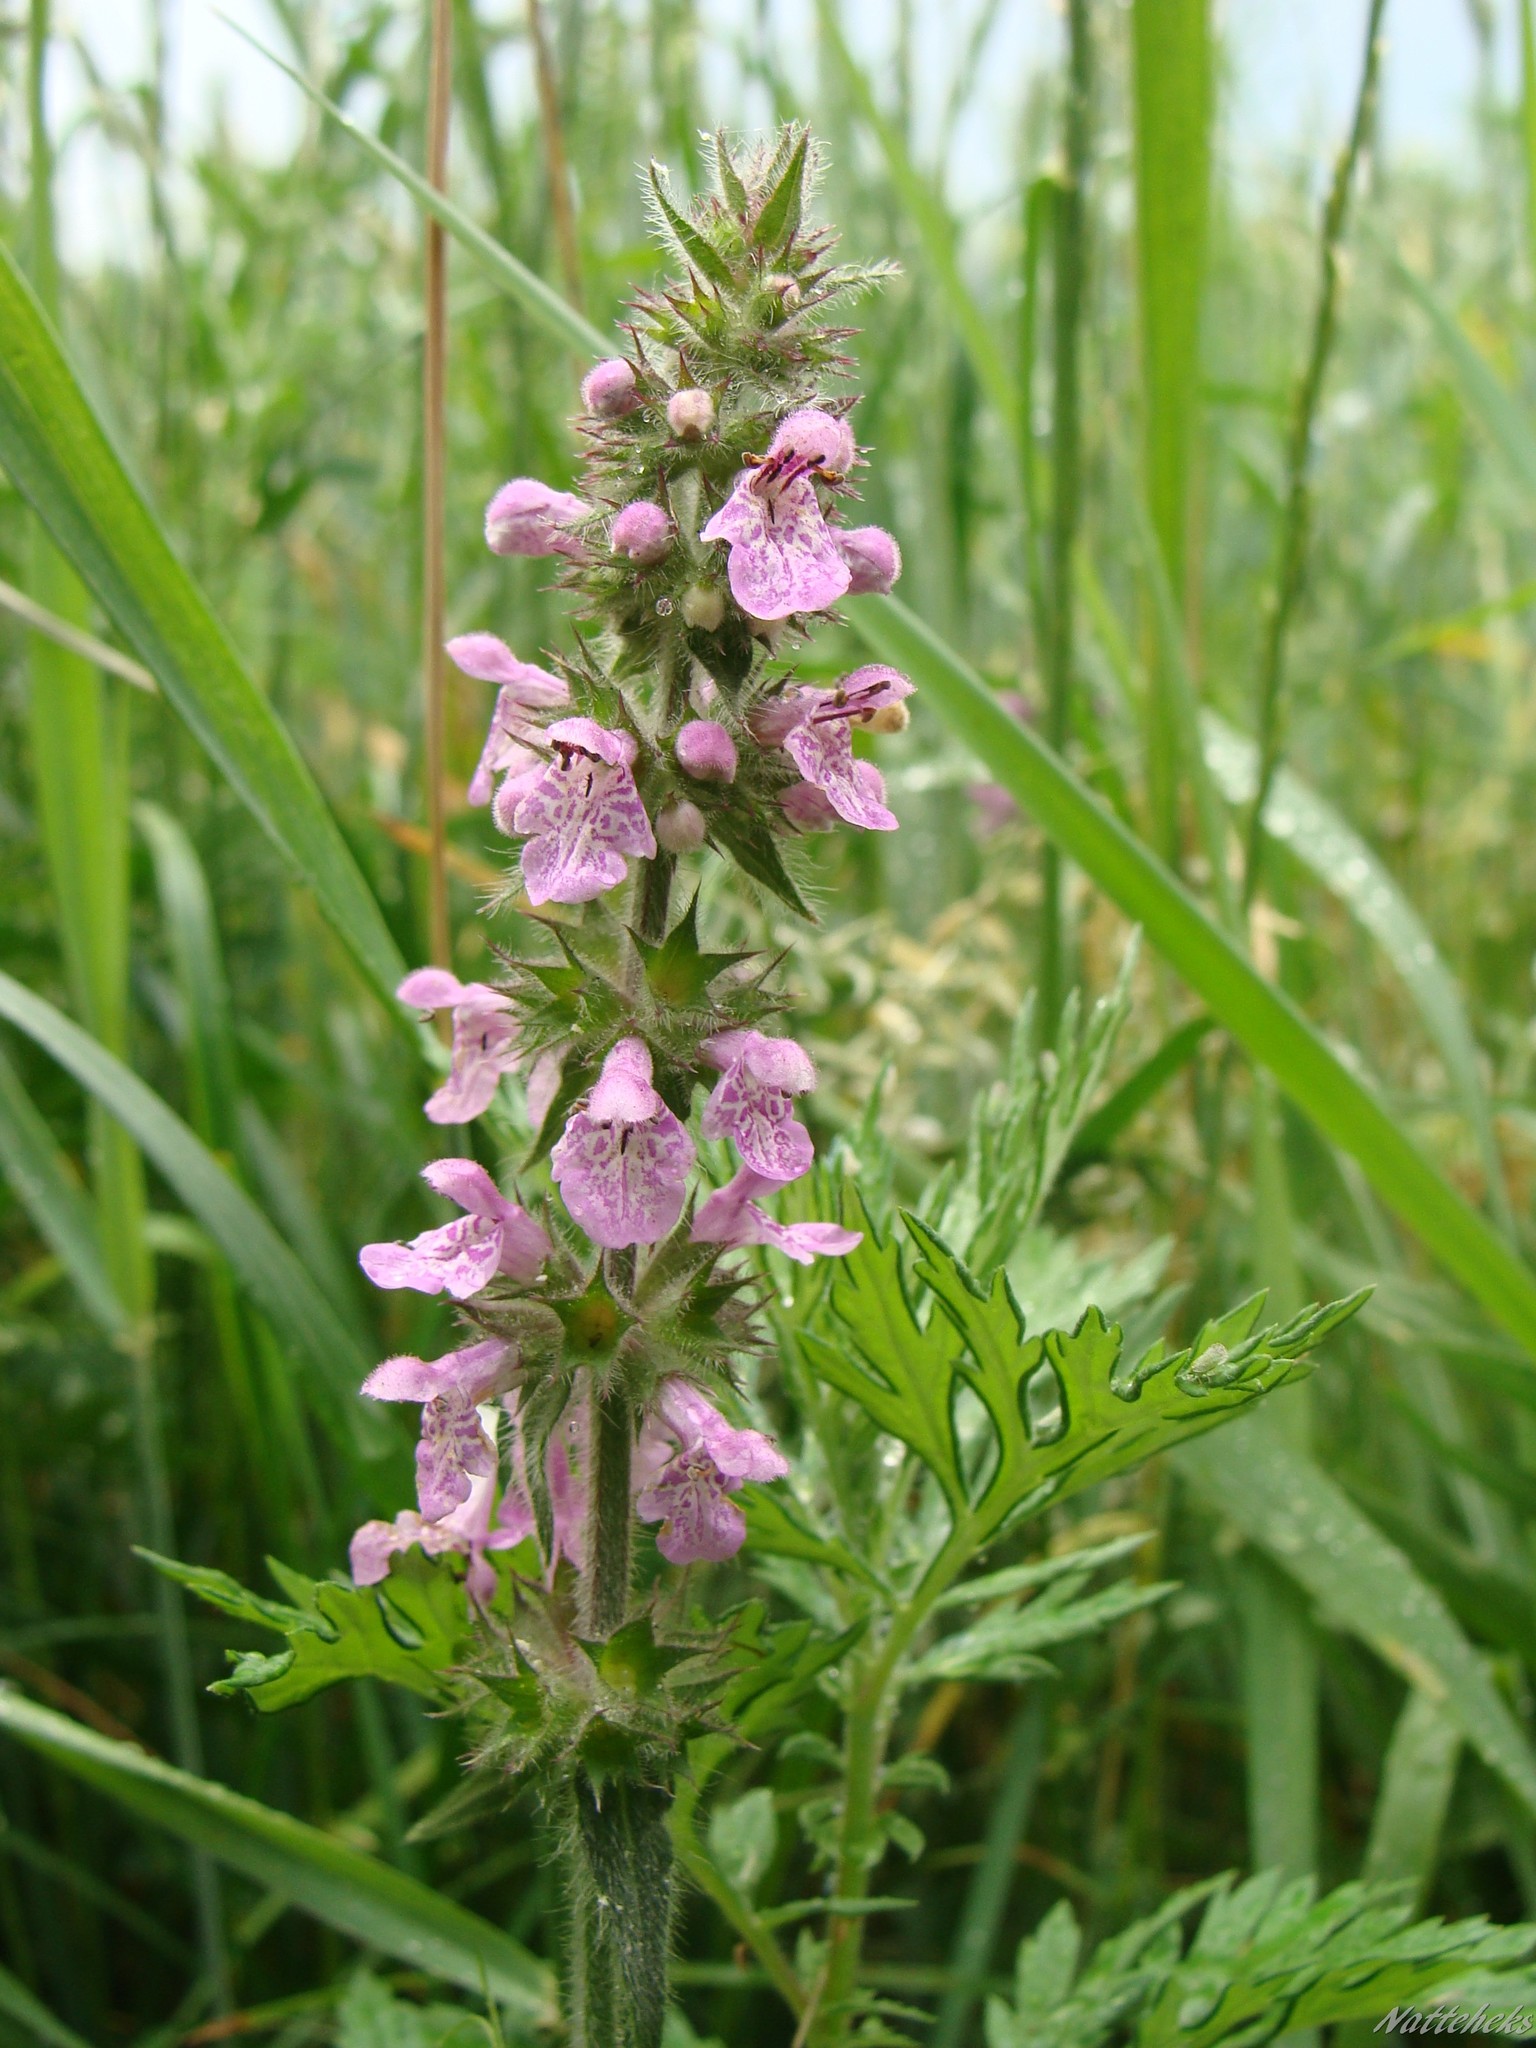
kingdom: Plantae
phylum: Tracheophyta
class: Magnoliopsida
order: Lamiales
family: Lamiaceae
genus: Stachys
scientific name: Stachys palustris
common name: Marsh woundwort
